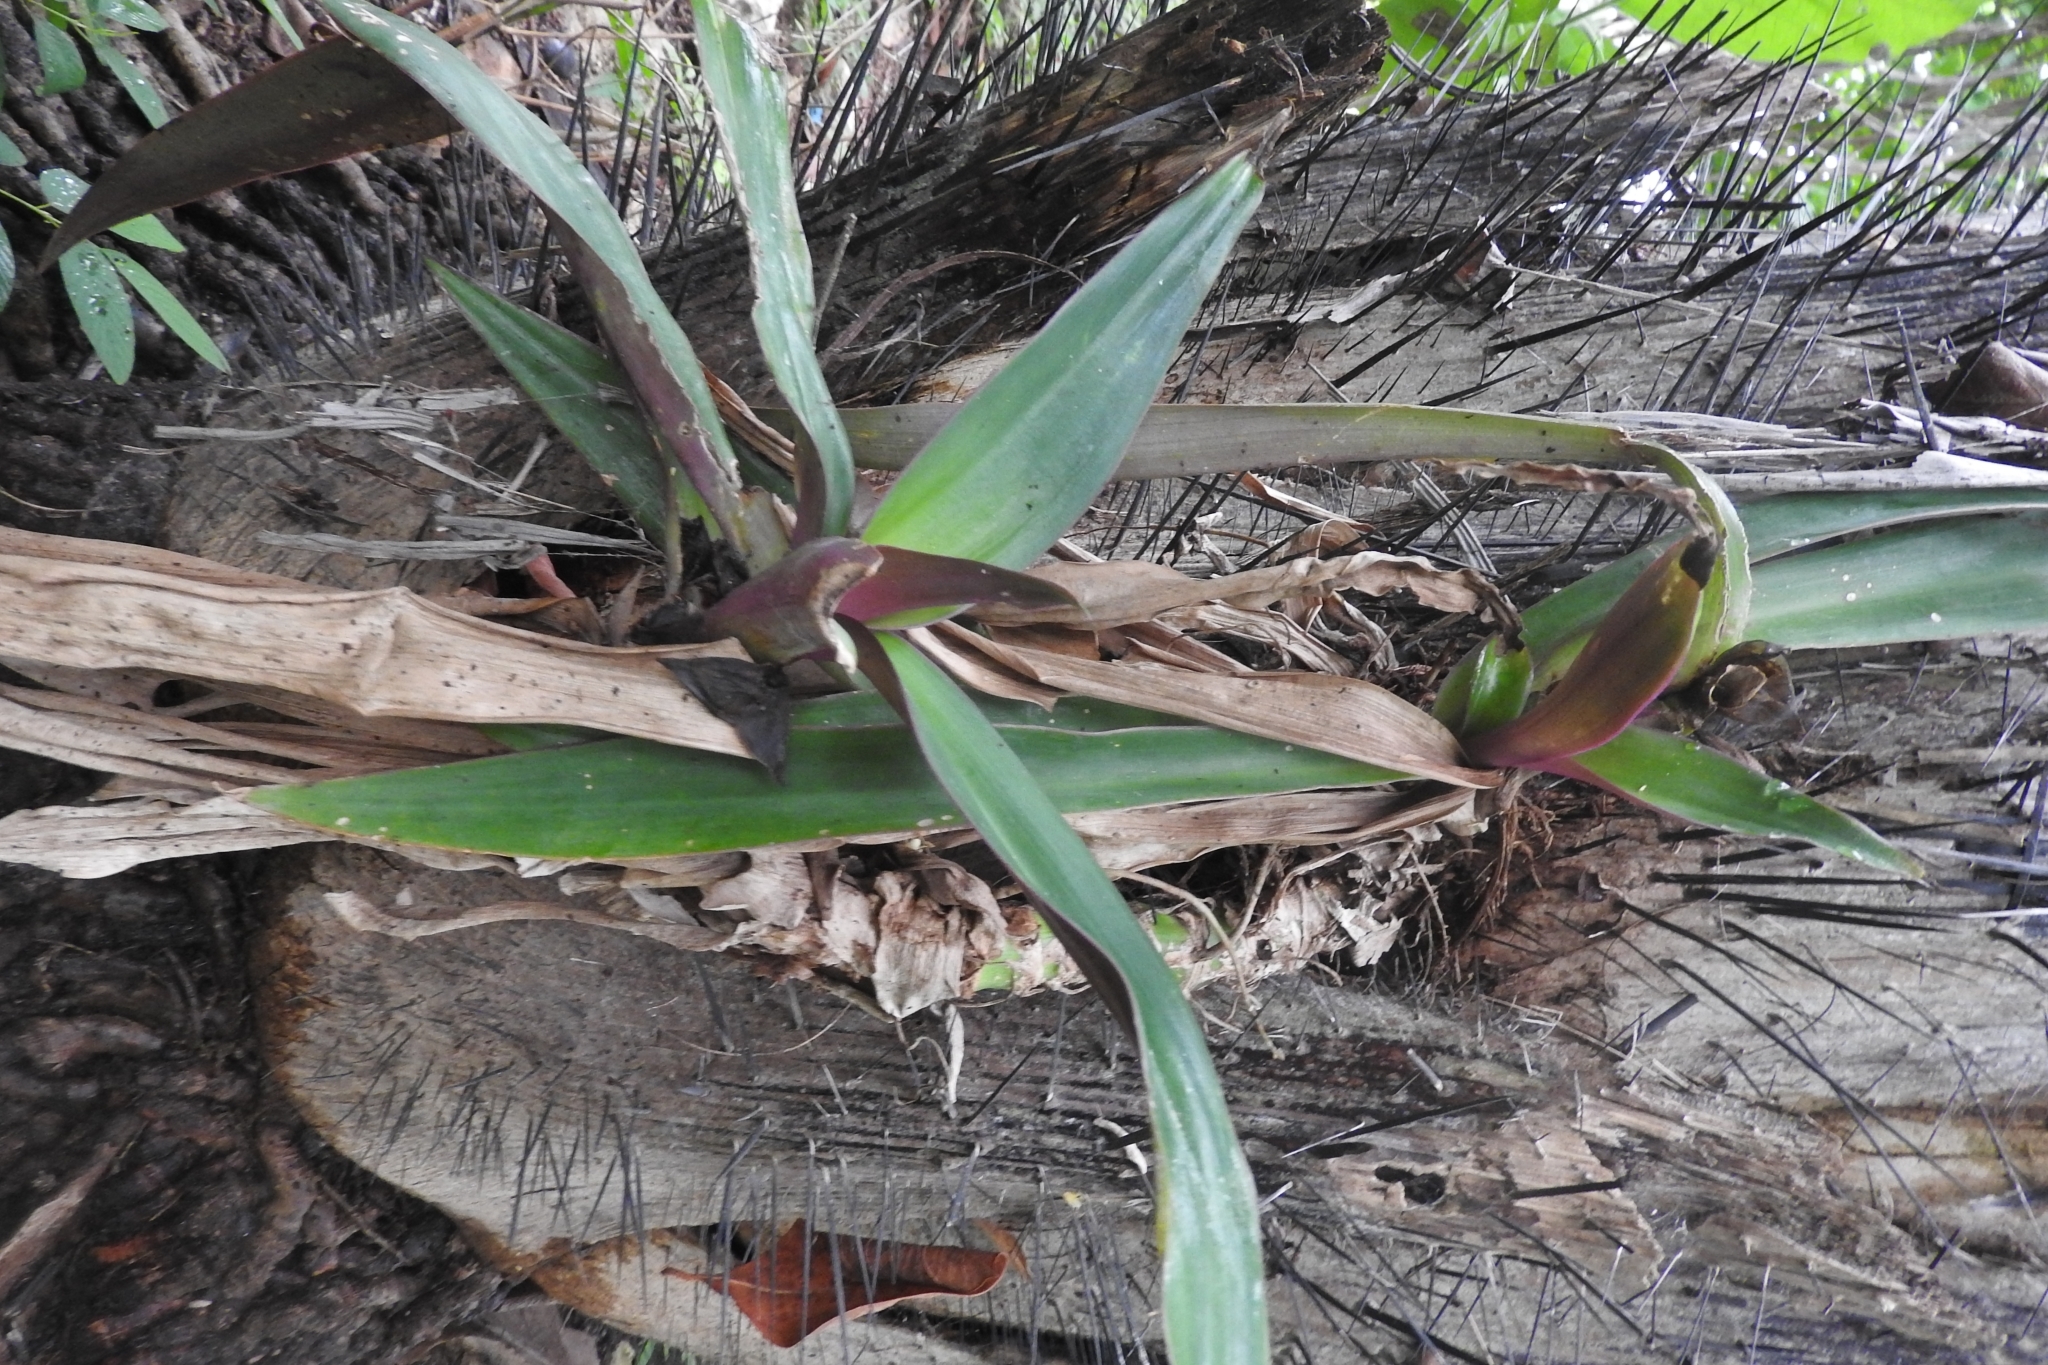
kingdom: Plantae
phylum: Tracheophyta
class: Liliopsida
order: Commelinales
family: Commelinaceae
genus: Tradescantia
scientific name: Tradescantia spathacea
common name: Boatlily
